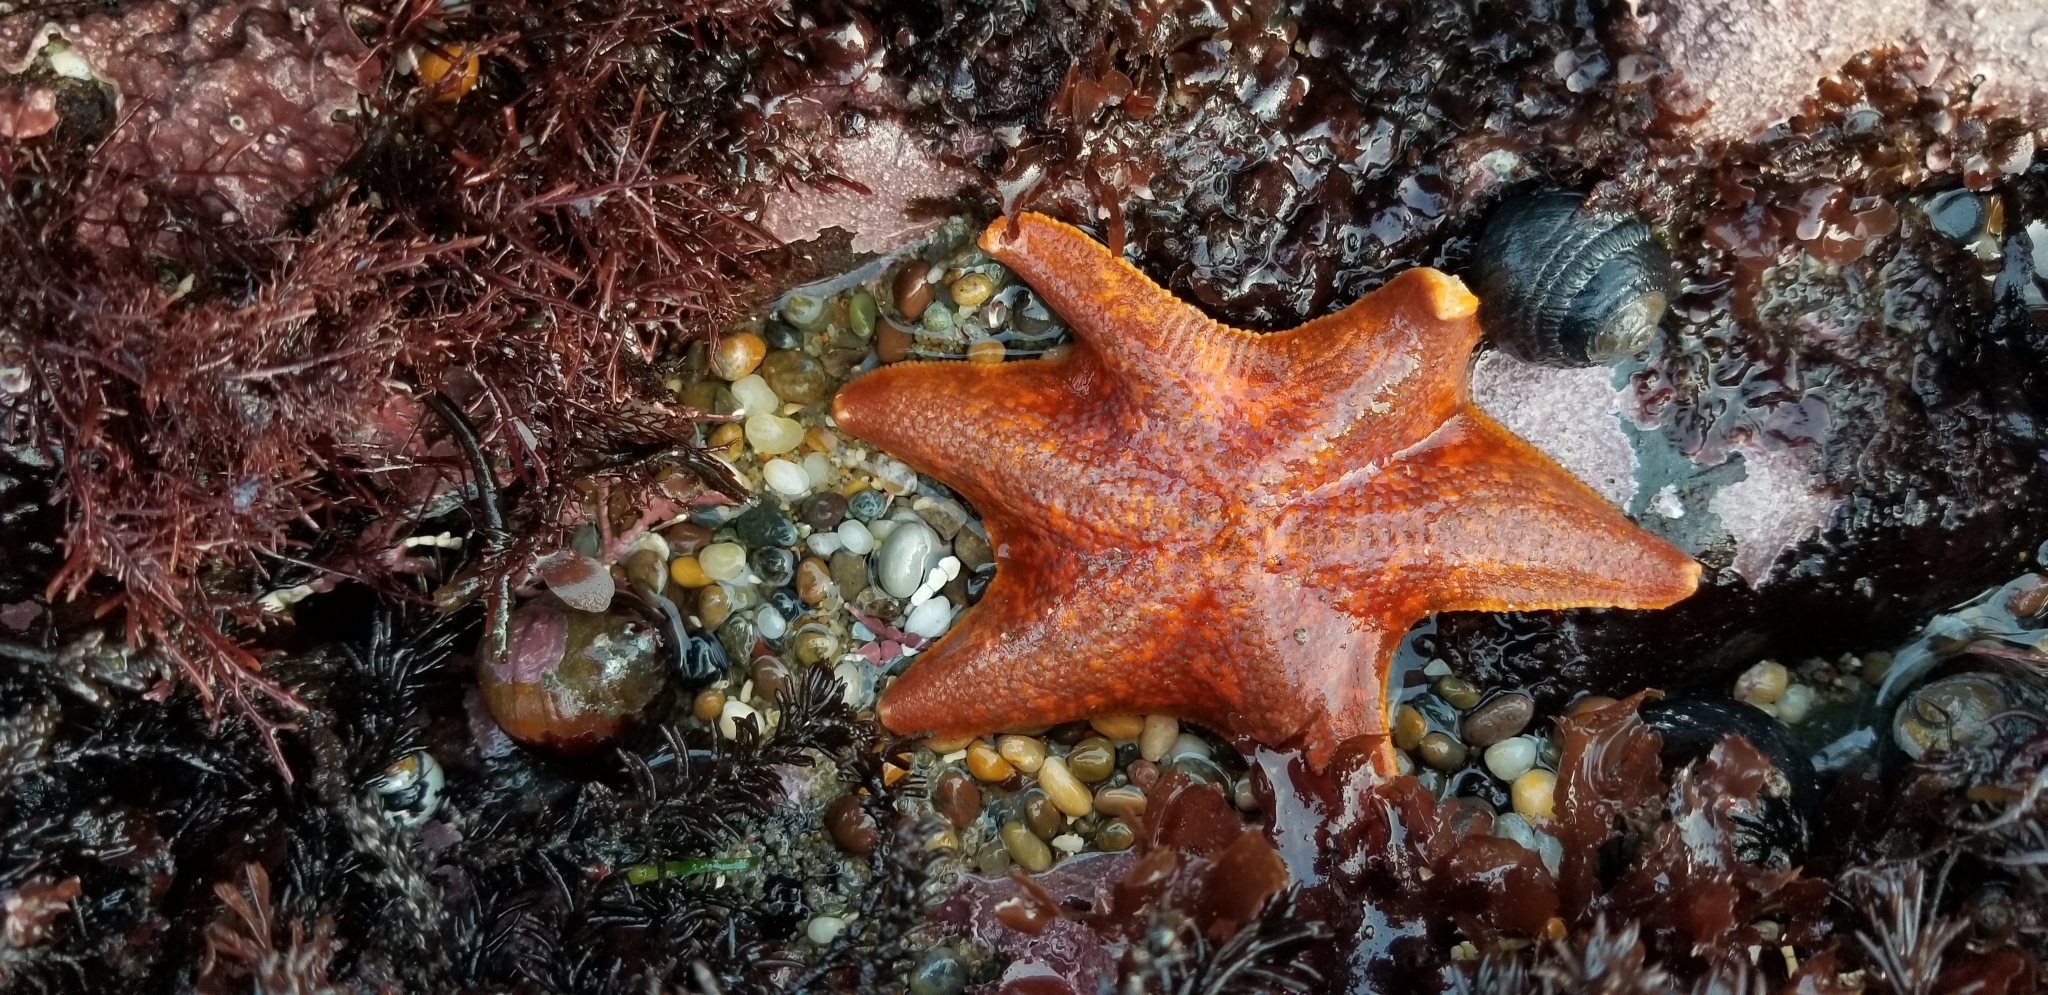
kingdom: Animalia
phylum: Echinodermata
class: Asteroidea
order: Valvatida
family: Asterinidae
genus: Patiria
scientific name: Patiria miniata
